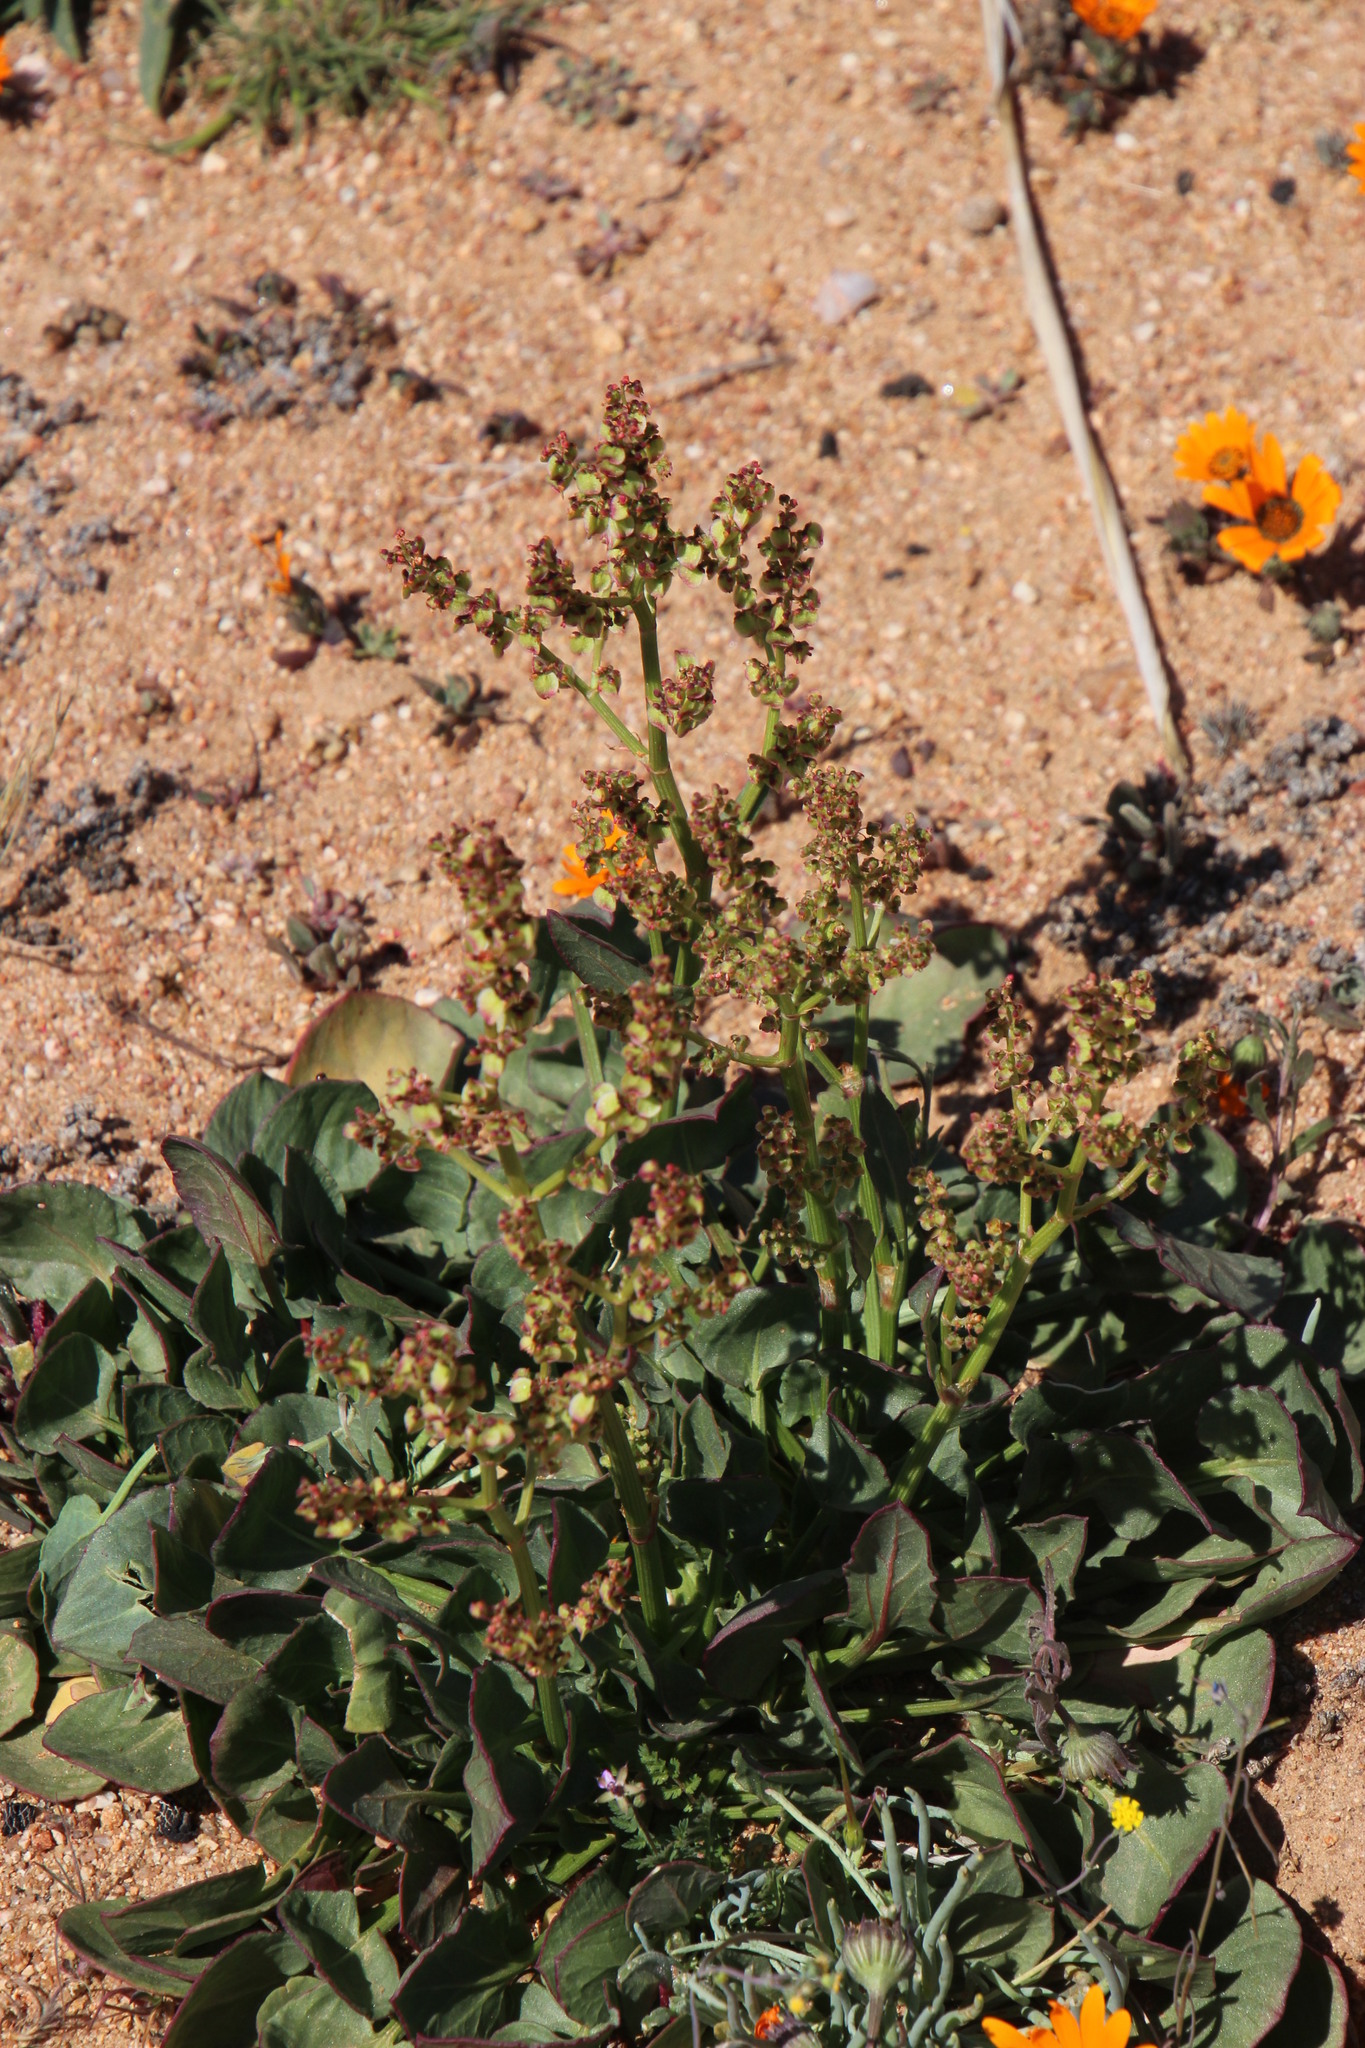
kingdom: Plantae
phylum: Tracheophyta
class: Magnoliopsida
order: Caryophyllales
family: Polygonaceae
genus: Rumex
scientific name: Rumex cordatus
